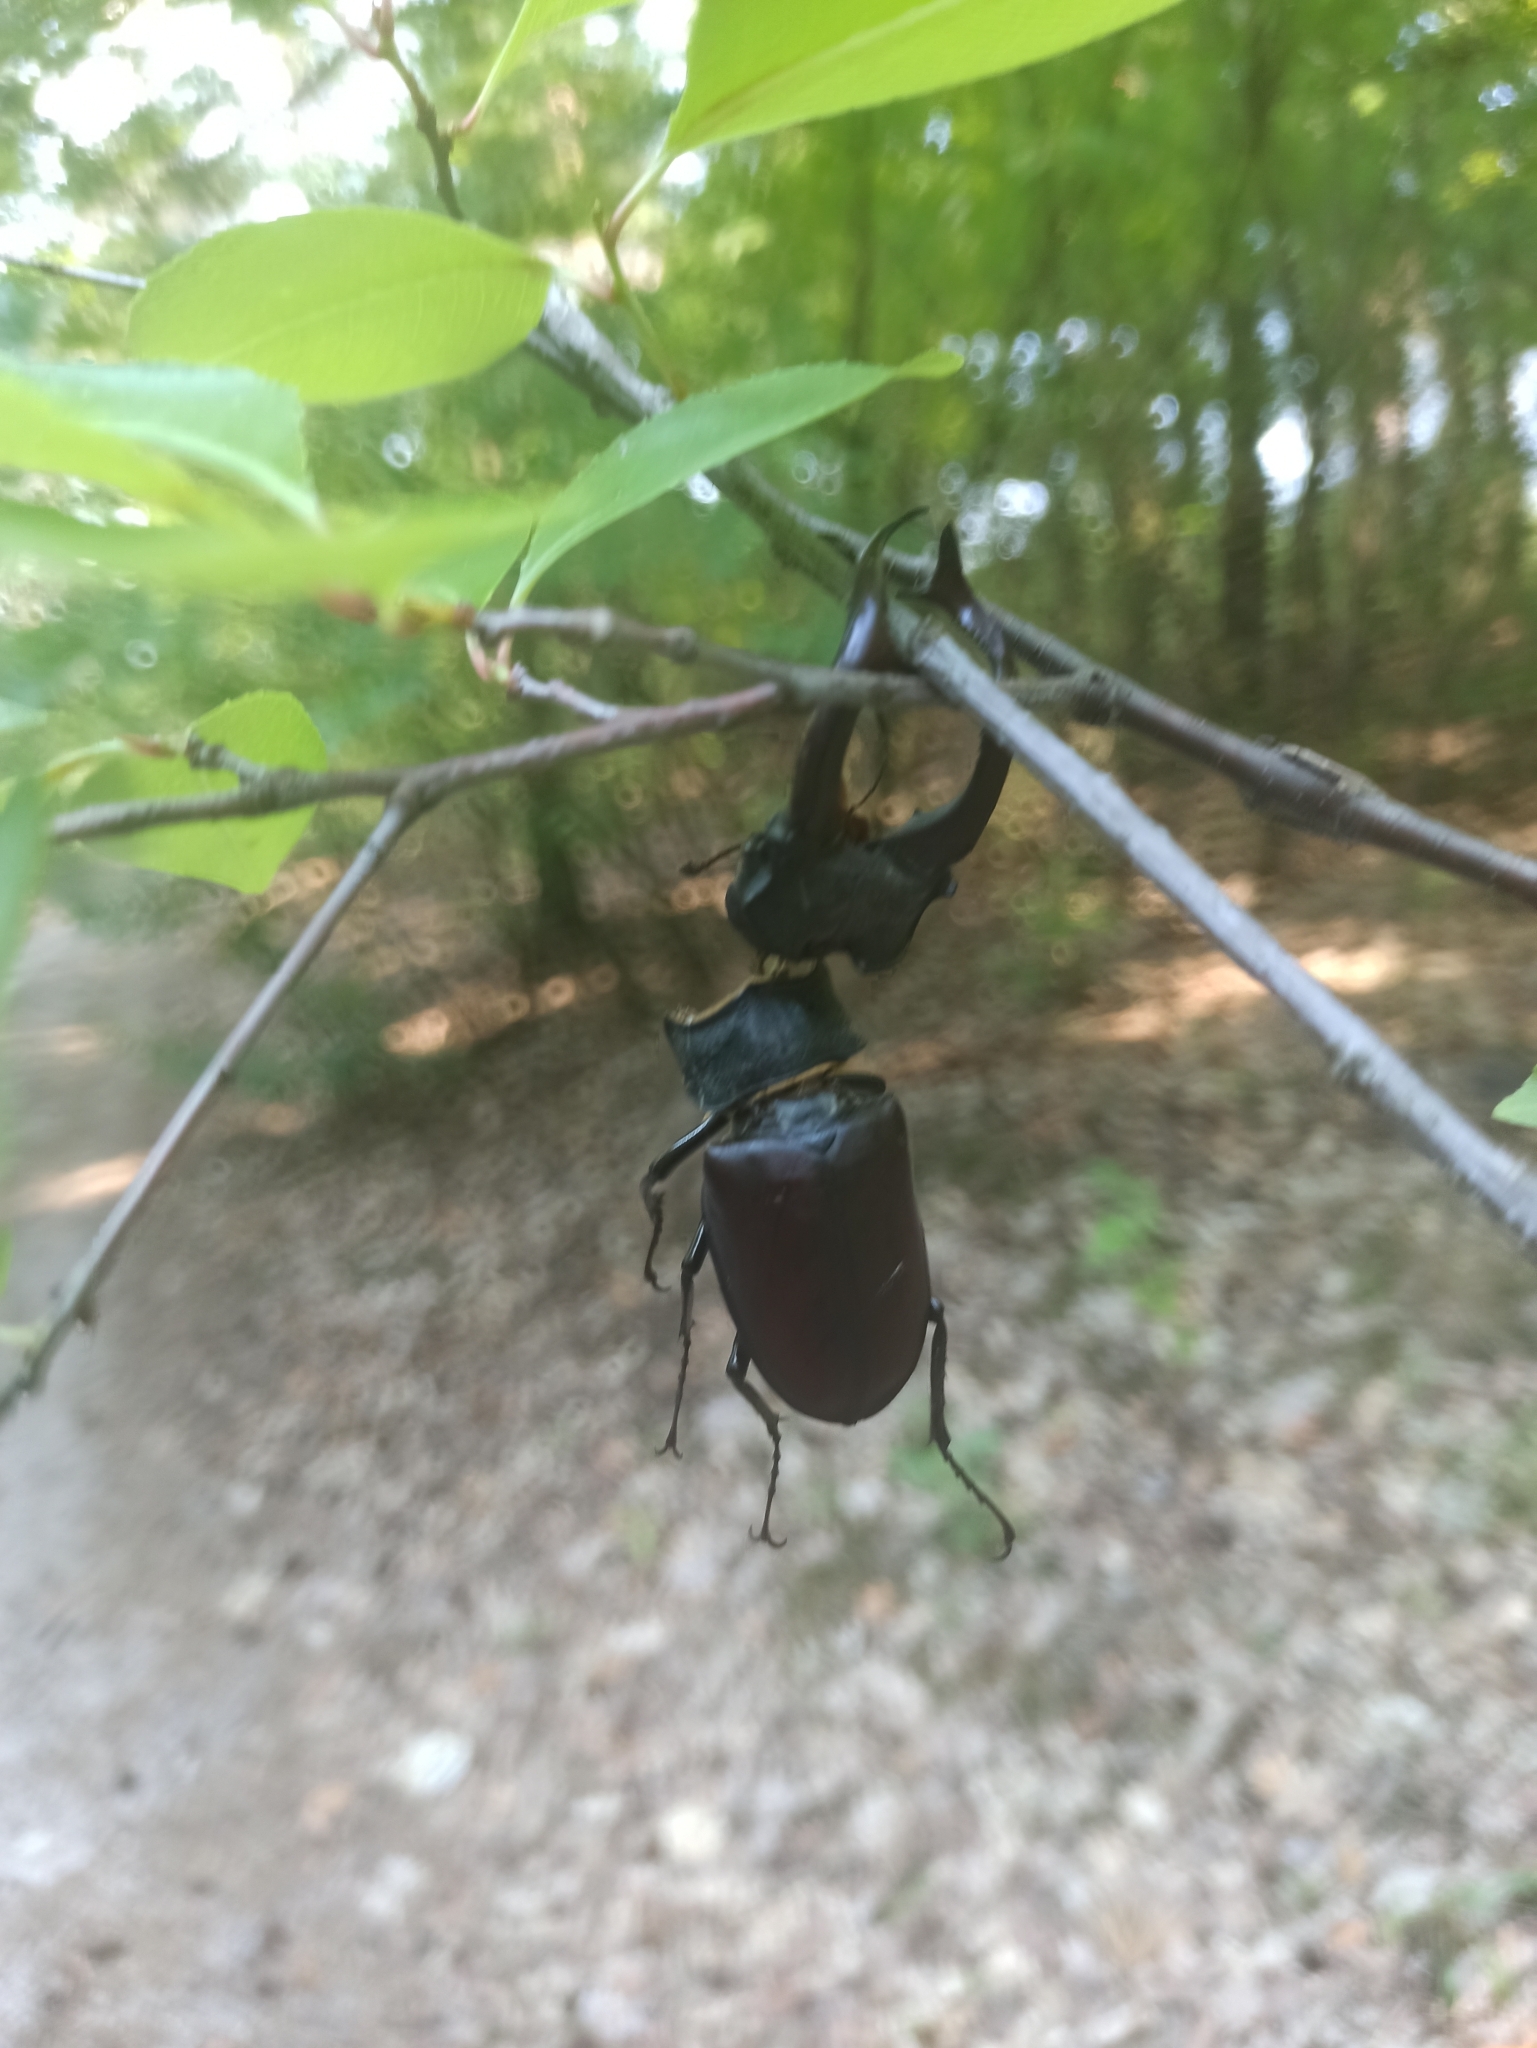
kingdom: Animalia
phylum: Arthropoda
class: Insecta
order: Coleoptera
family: Lucanidae
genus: Lucanus
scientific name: Lucanus cervus
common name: Stag beetle
